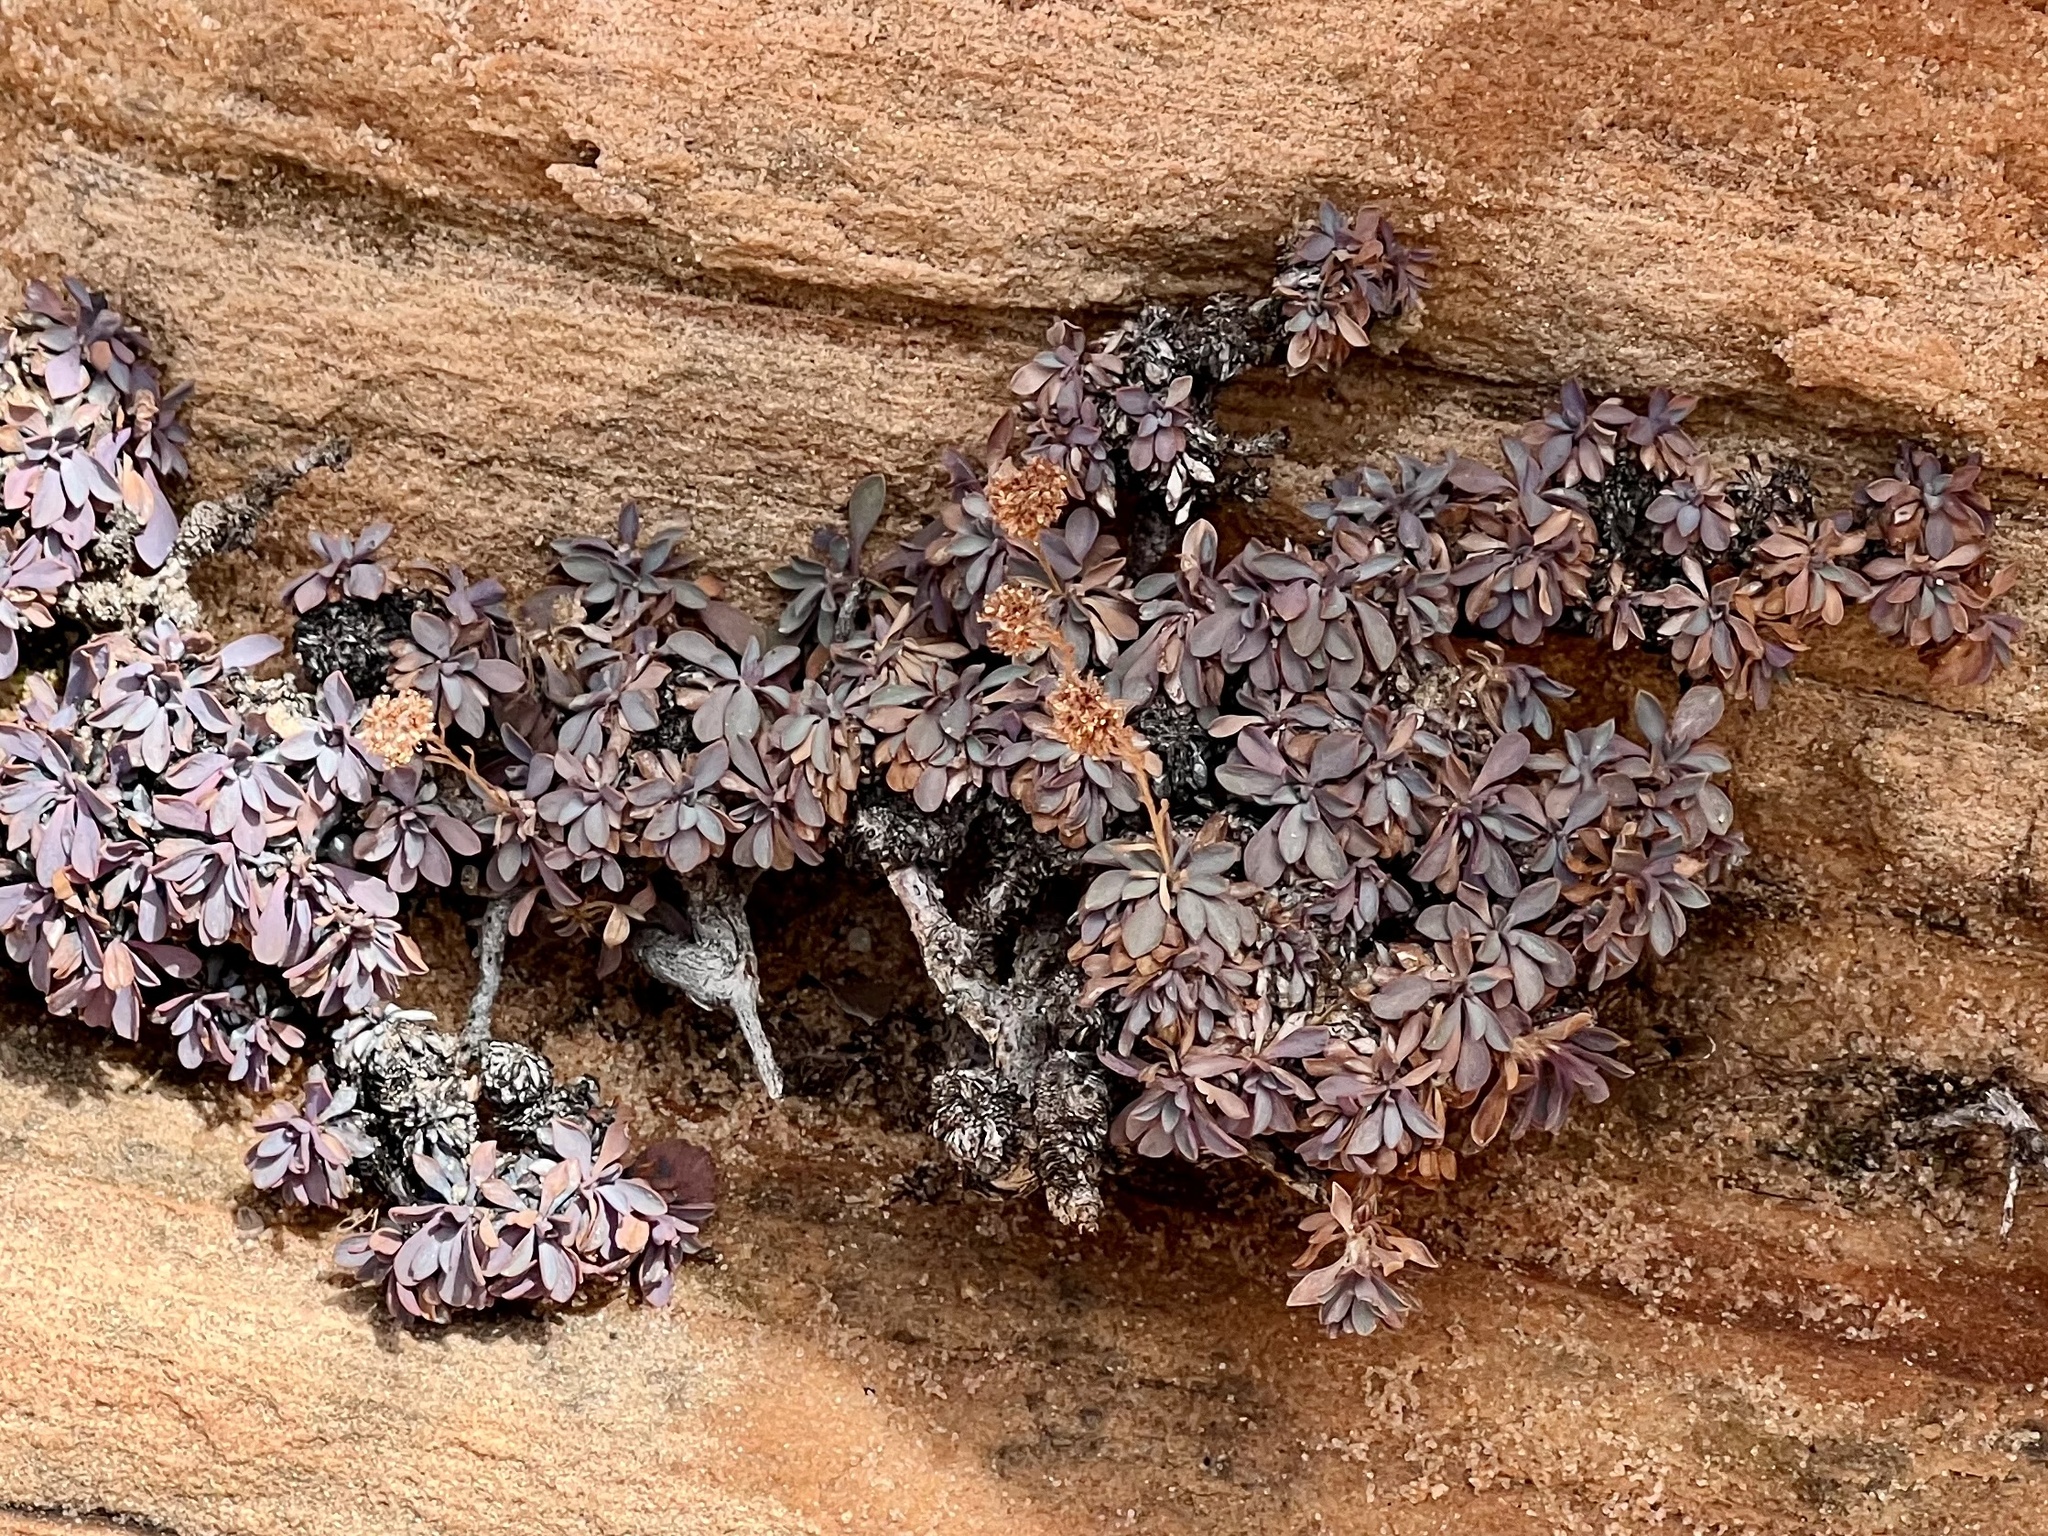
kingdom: Plantae
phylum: Tracheophyta
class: Magnoliopsida
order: Rosales
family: Rosaceae
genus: Petrophytum
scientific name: Petrophytum caespitosum
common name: Mat rockspirea
